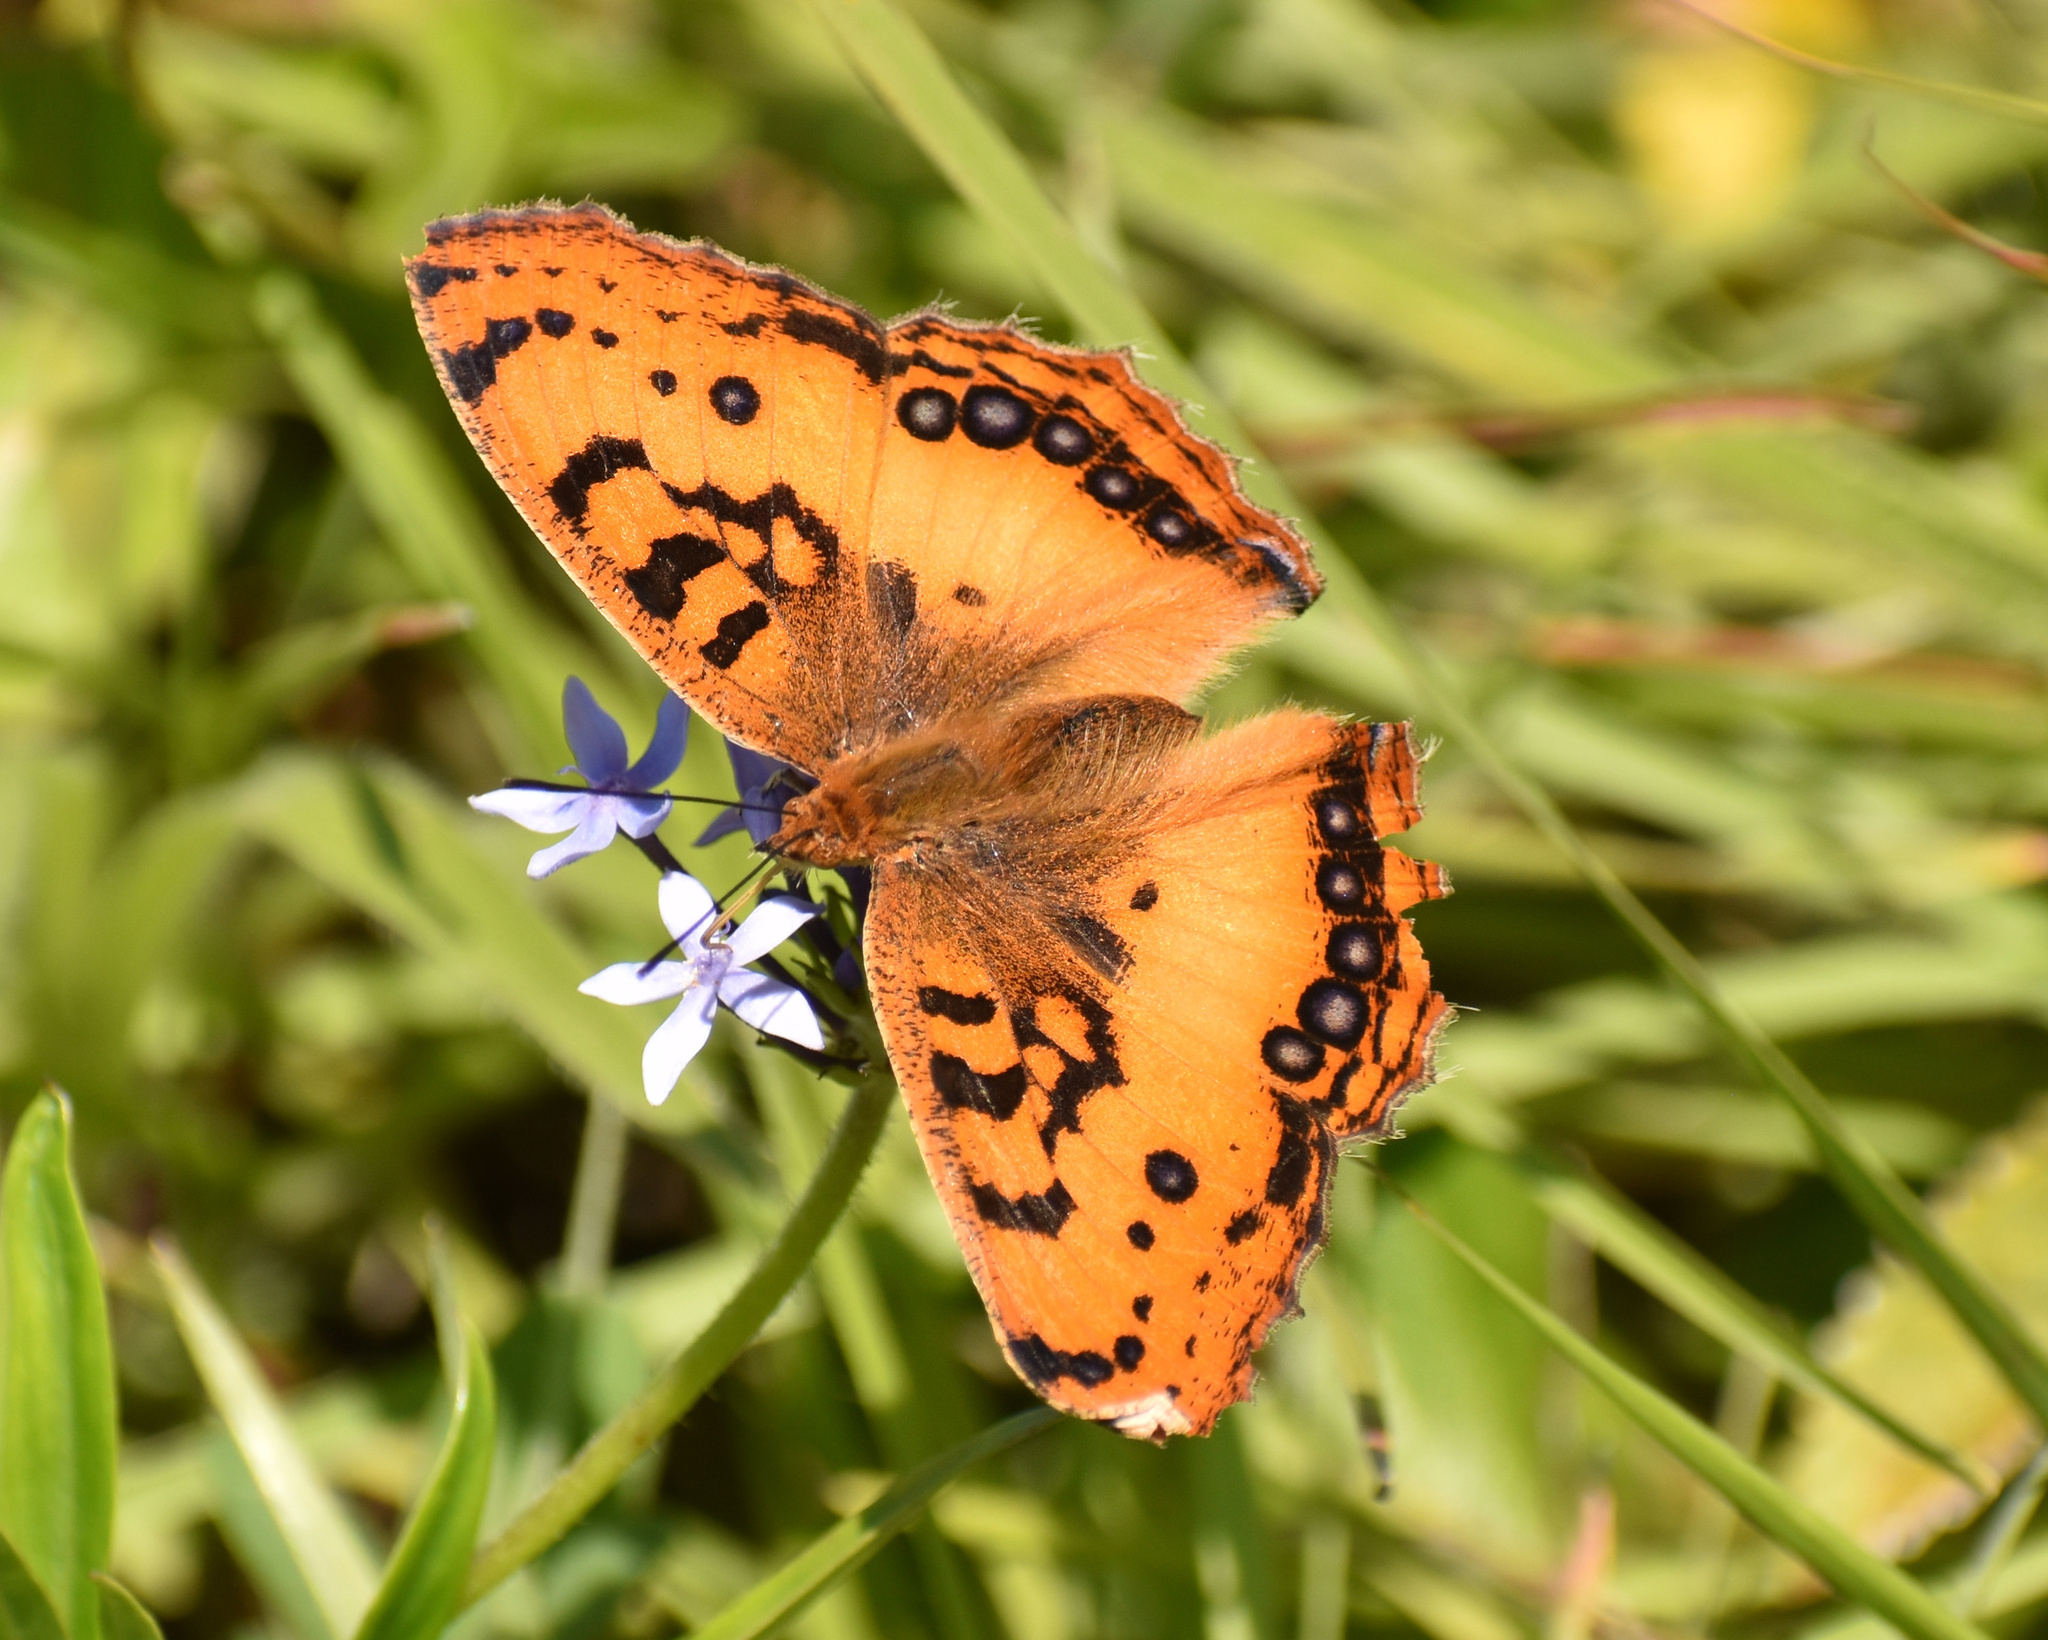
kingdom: Animalia
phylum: Arthropoda
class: Insecta
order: Lepidoptera
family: Nymphalidae
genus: Catacroptera
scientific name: Catacroptera cloanthe
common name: Pirate
